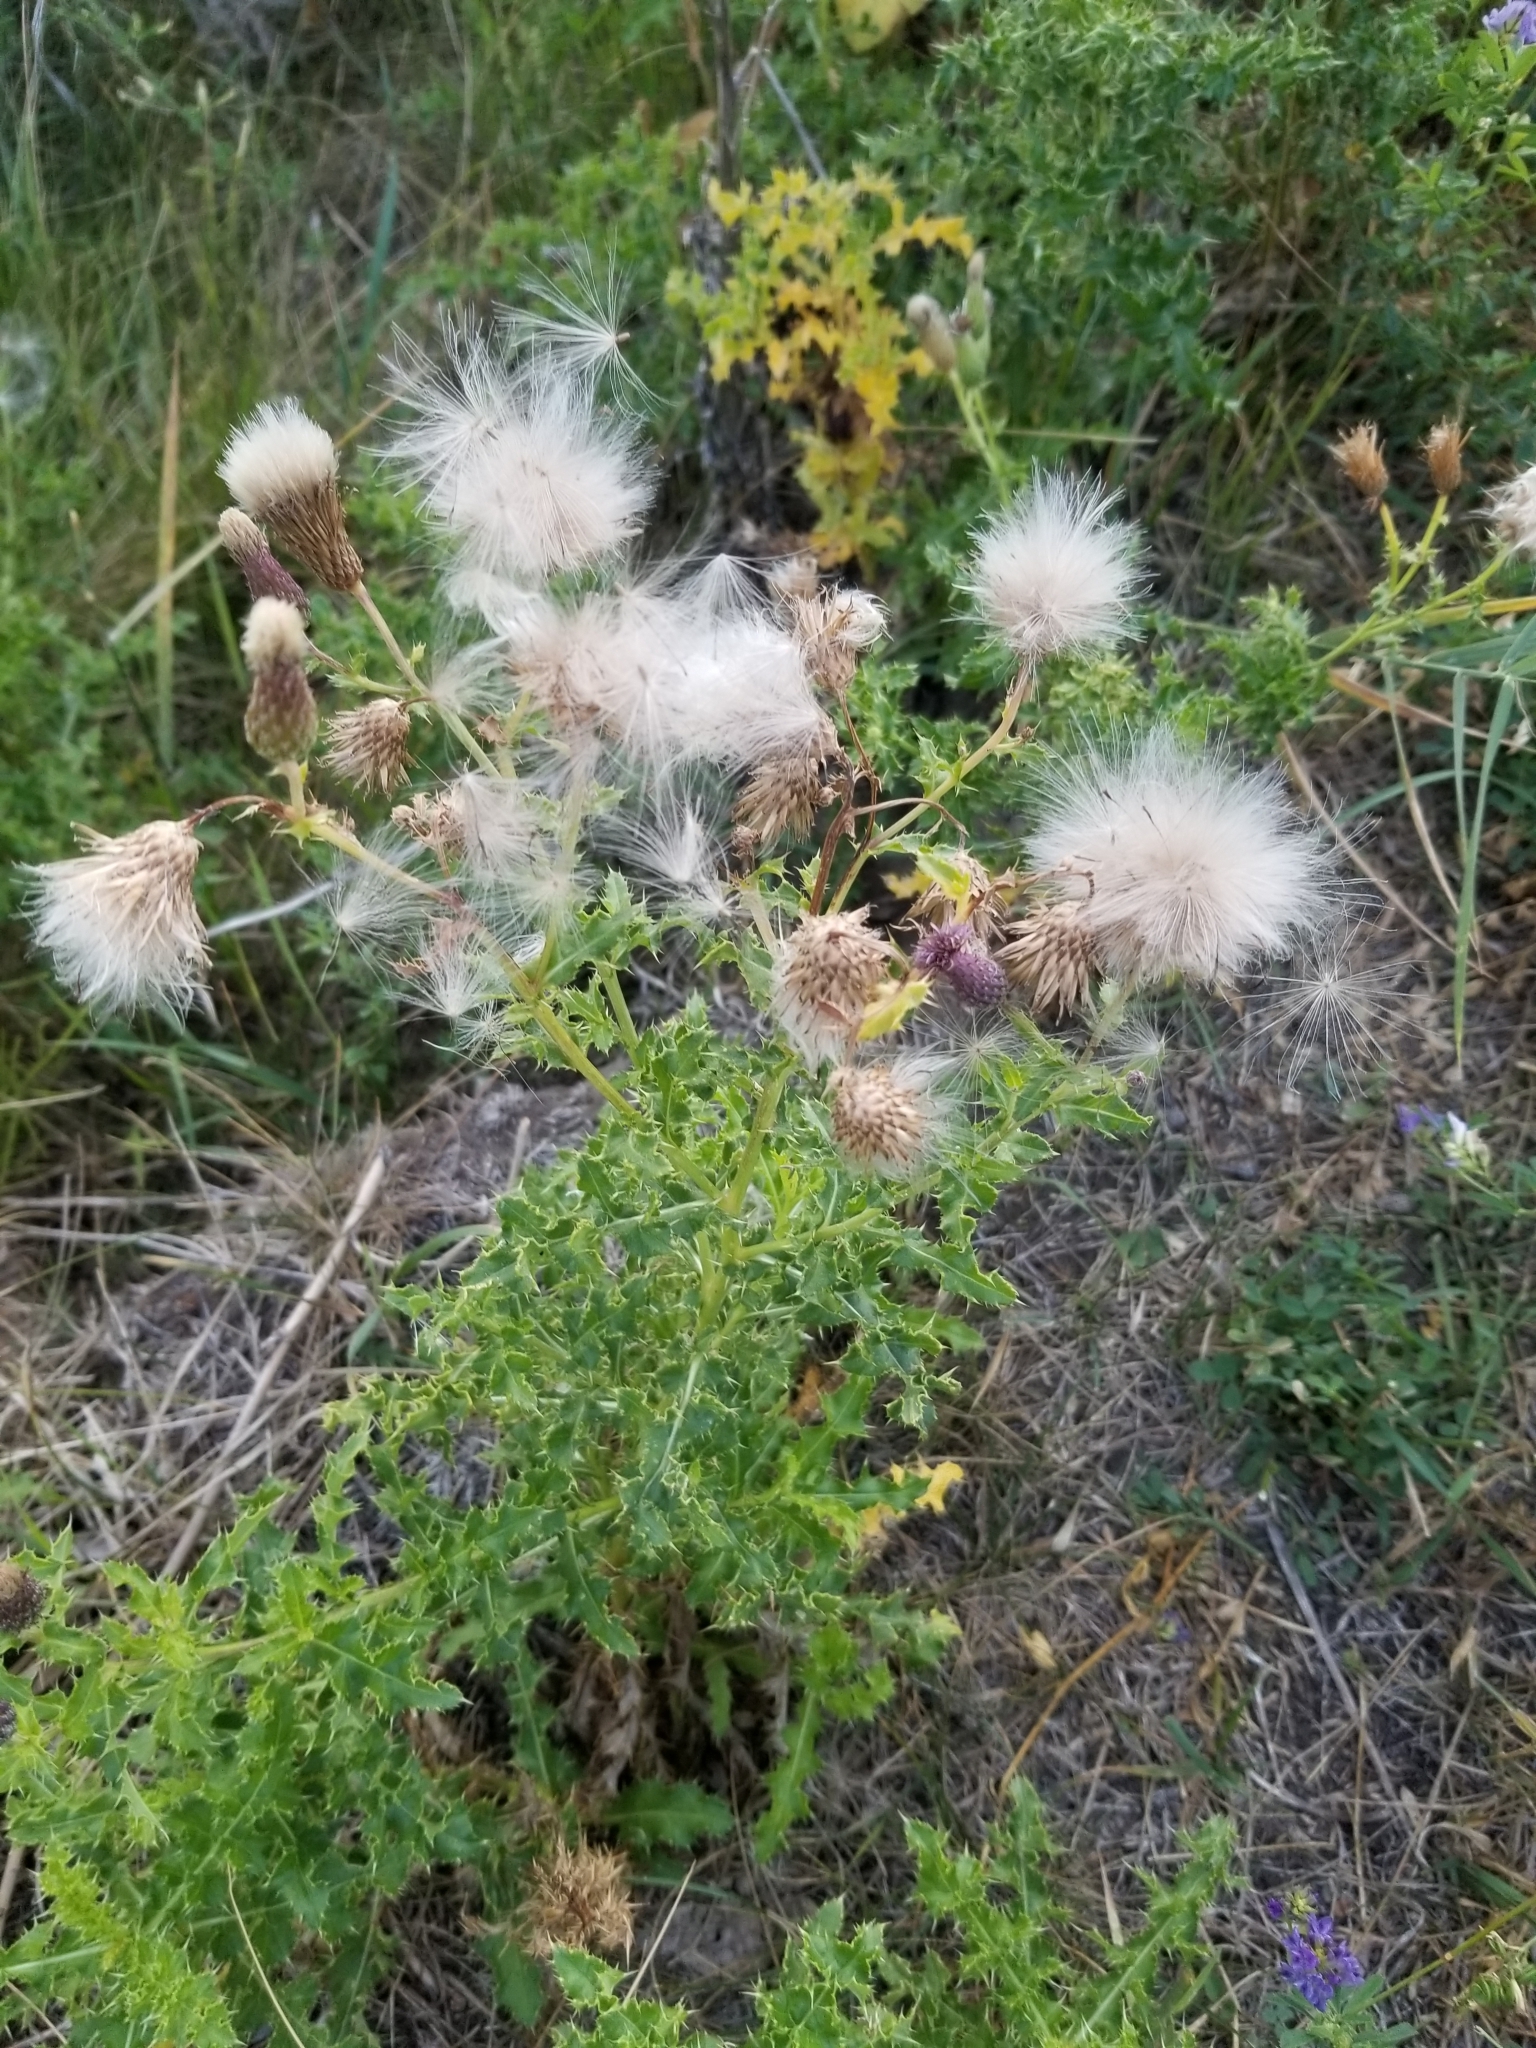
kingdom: Plantae
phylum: Tracheophyta
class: Magnoliopsida
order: Asterales
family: Asteraceae
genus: Cirsium
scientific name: Cirsium arvense
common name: Creeping thistle
